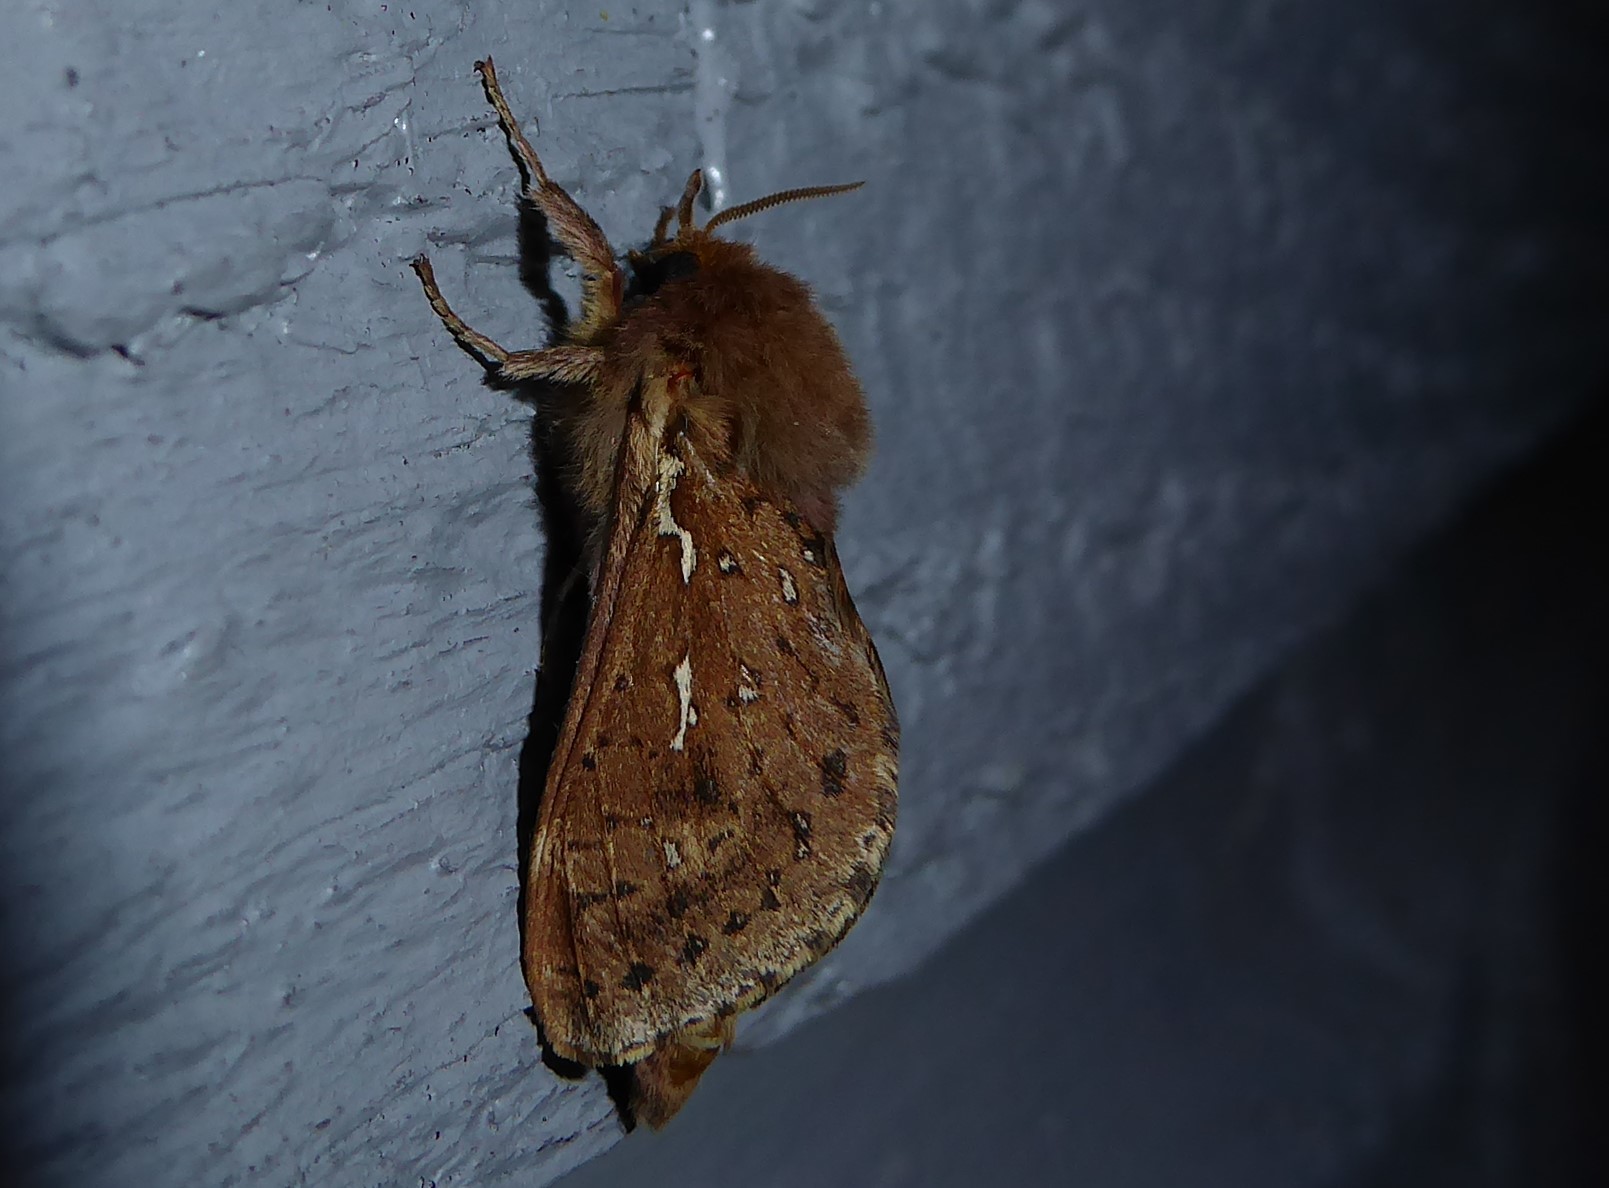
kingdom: Animalia
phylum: Arthropoda
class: Insecta
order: Lepidoptera
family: Hepialidae
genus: Wiseana
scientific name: Wiseana copularis
